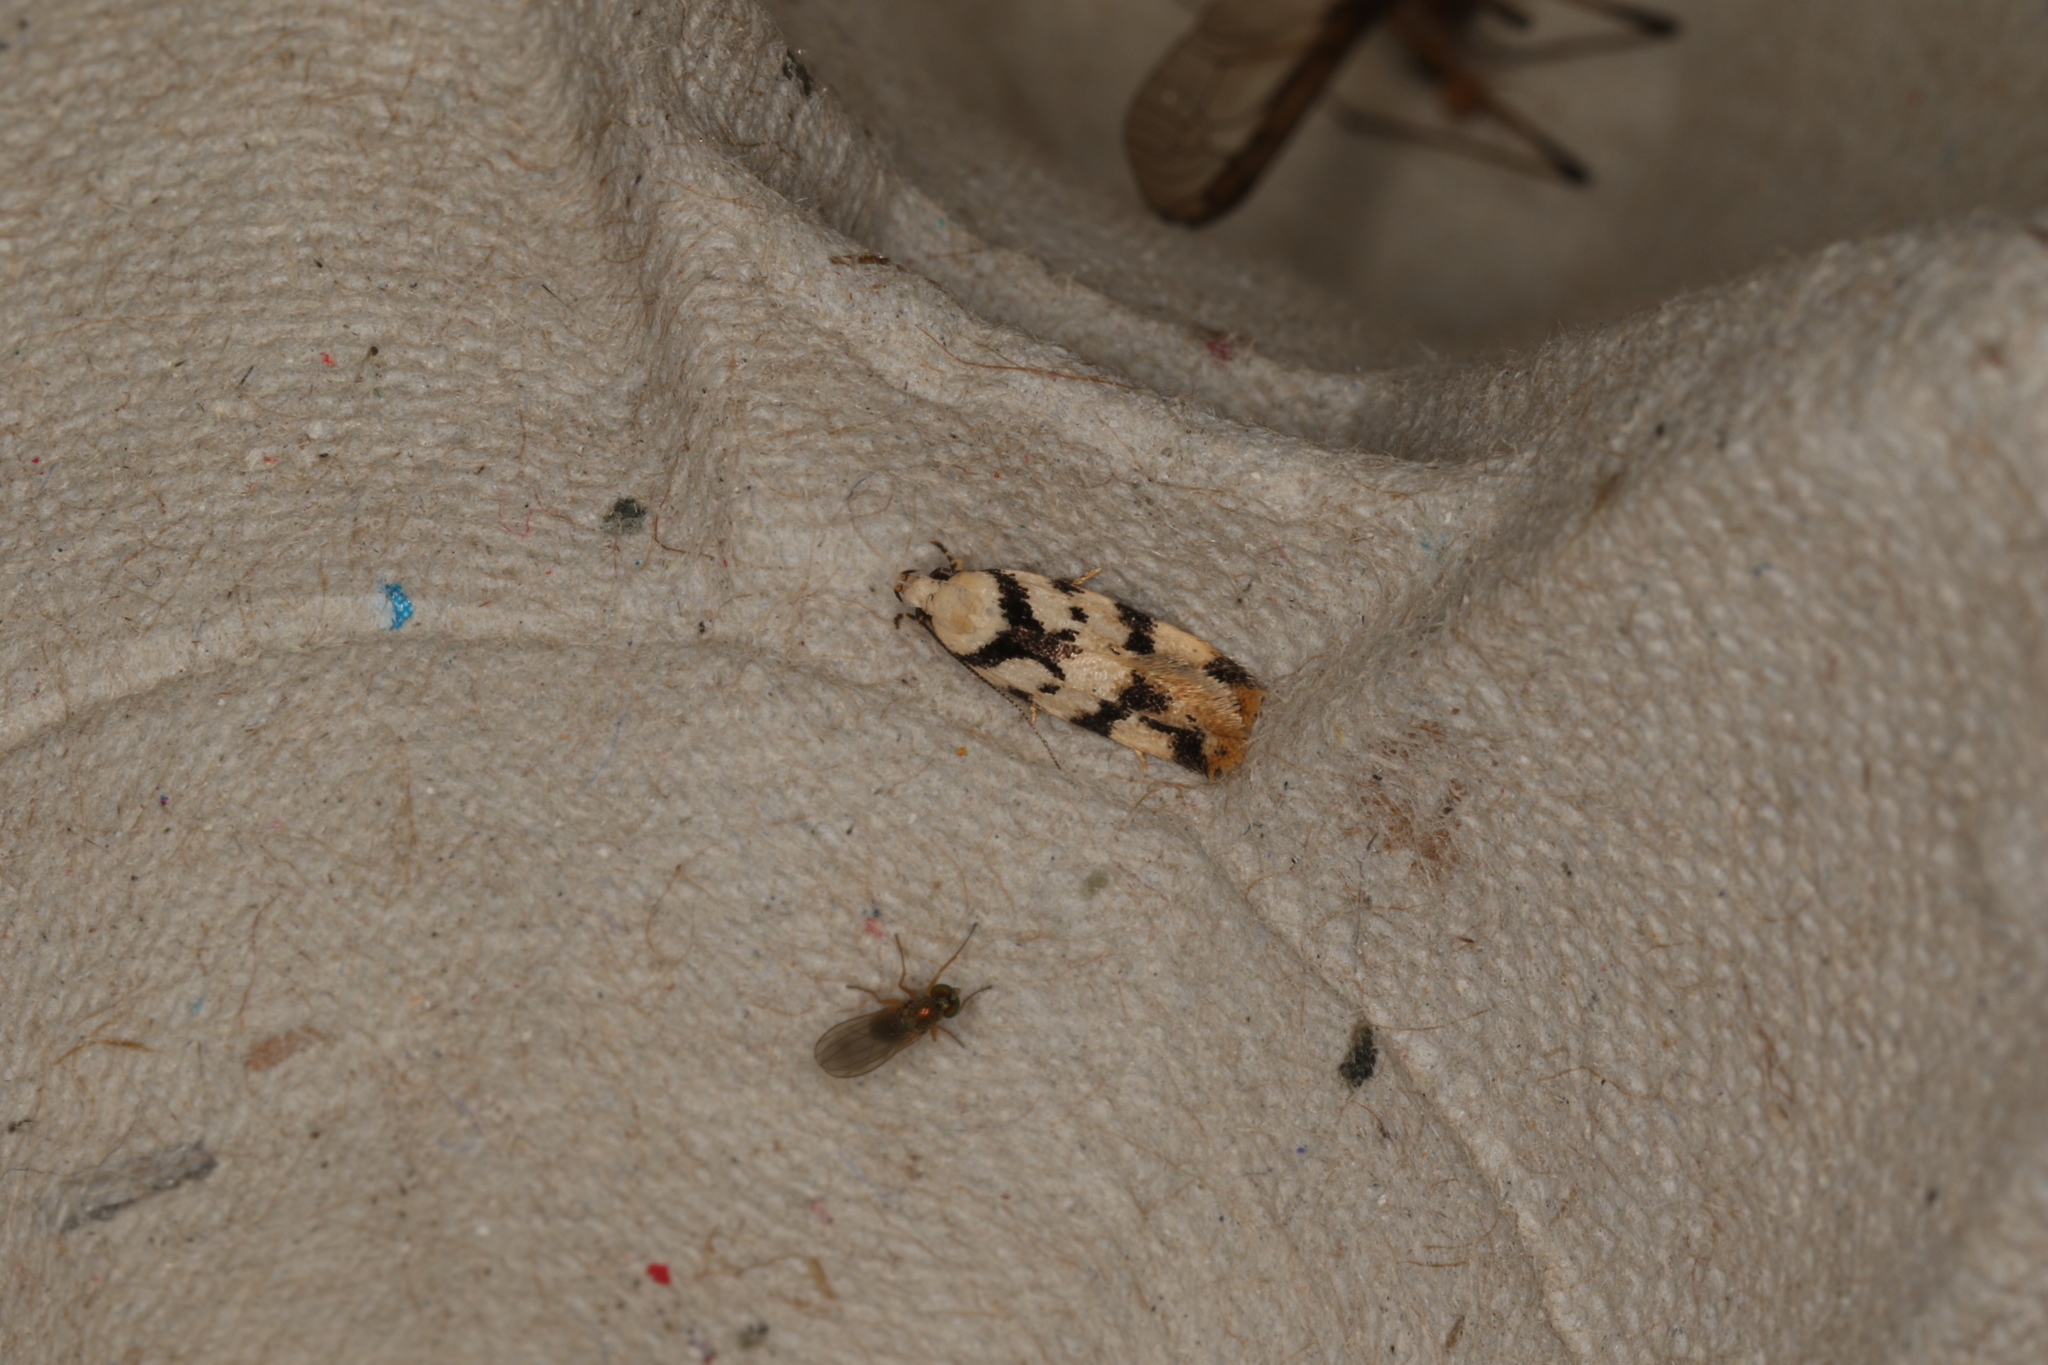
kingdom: Animalia
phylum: Arthropoda
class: Insecta
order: Lepidoptera
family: Oecophoridae
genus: Barea
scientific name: Barea discincta
